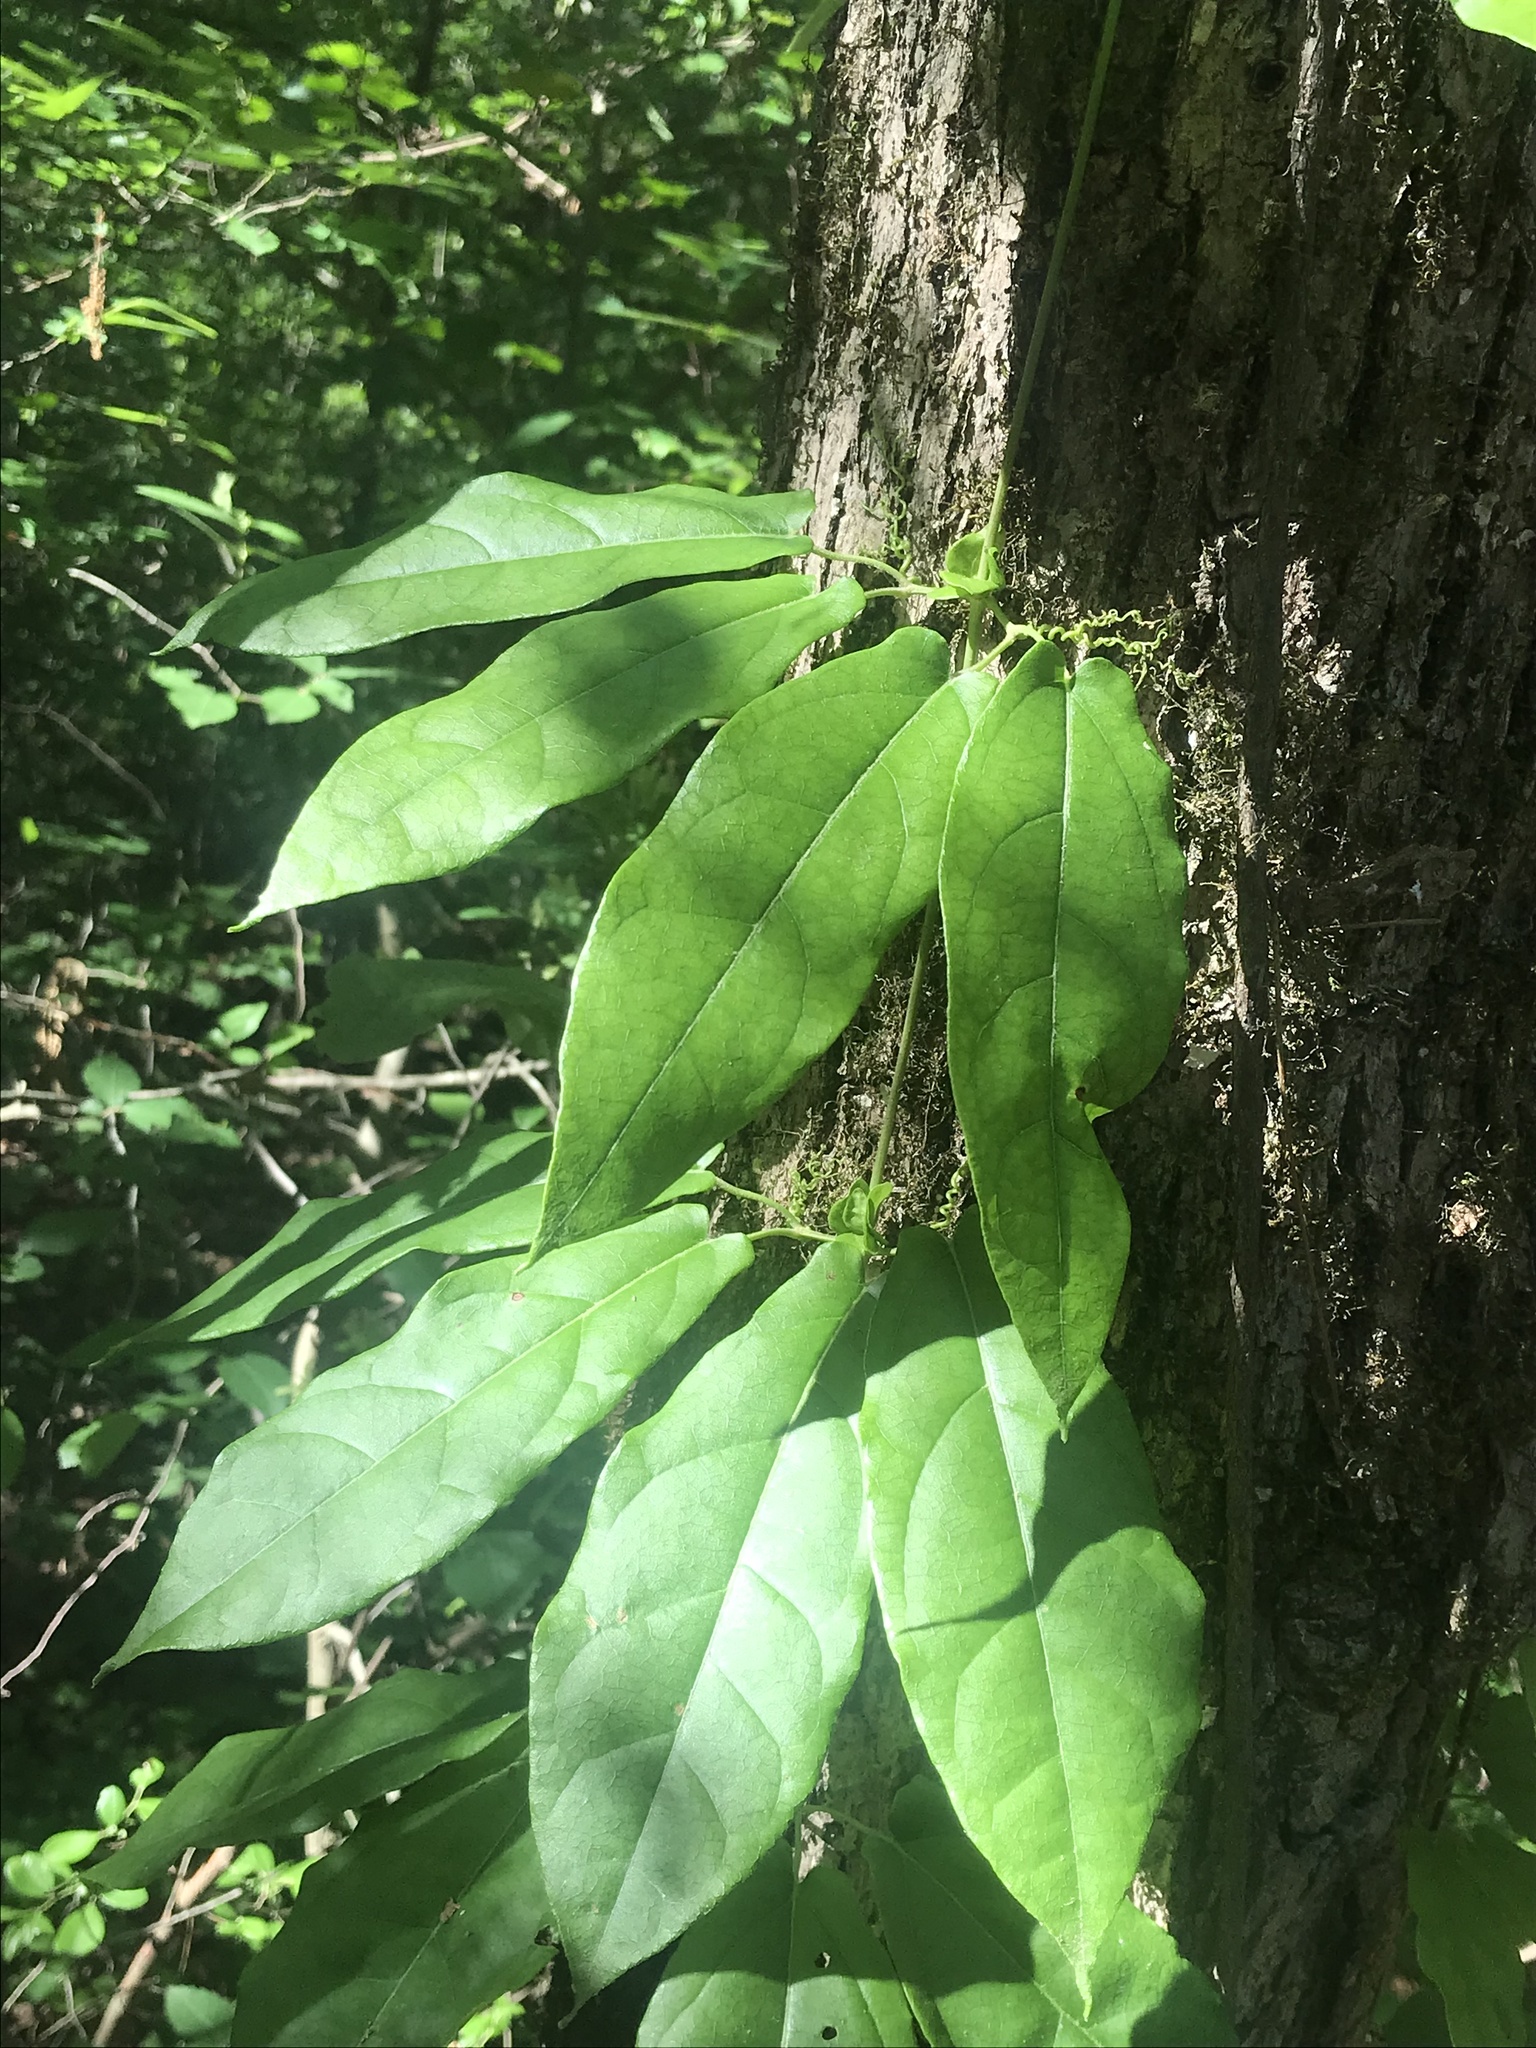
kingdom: Plantae
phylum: Tracheophyta
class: Magnoliopsida
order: Lamiales
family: Bignoniaceae
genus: Bignonia
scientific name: Bignonia capreolata
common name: Crossvine
